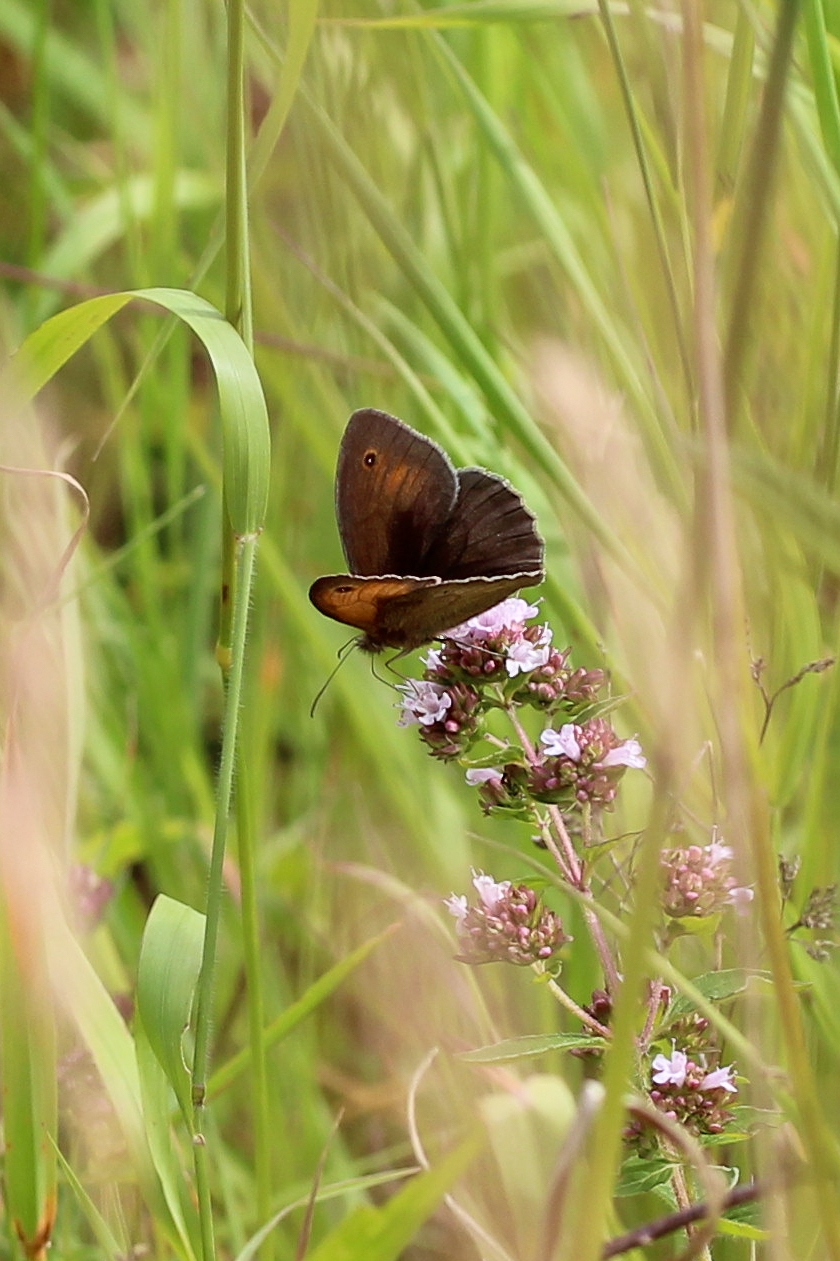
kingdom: Animalia
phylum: Arthropoda
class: Insecta
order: Lepidoptera
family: Nymphalidae
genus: Maniola
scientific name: Maniola jurtina
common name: Meadow brown
